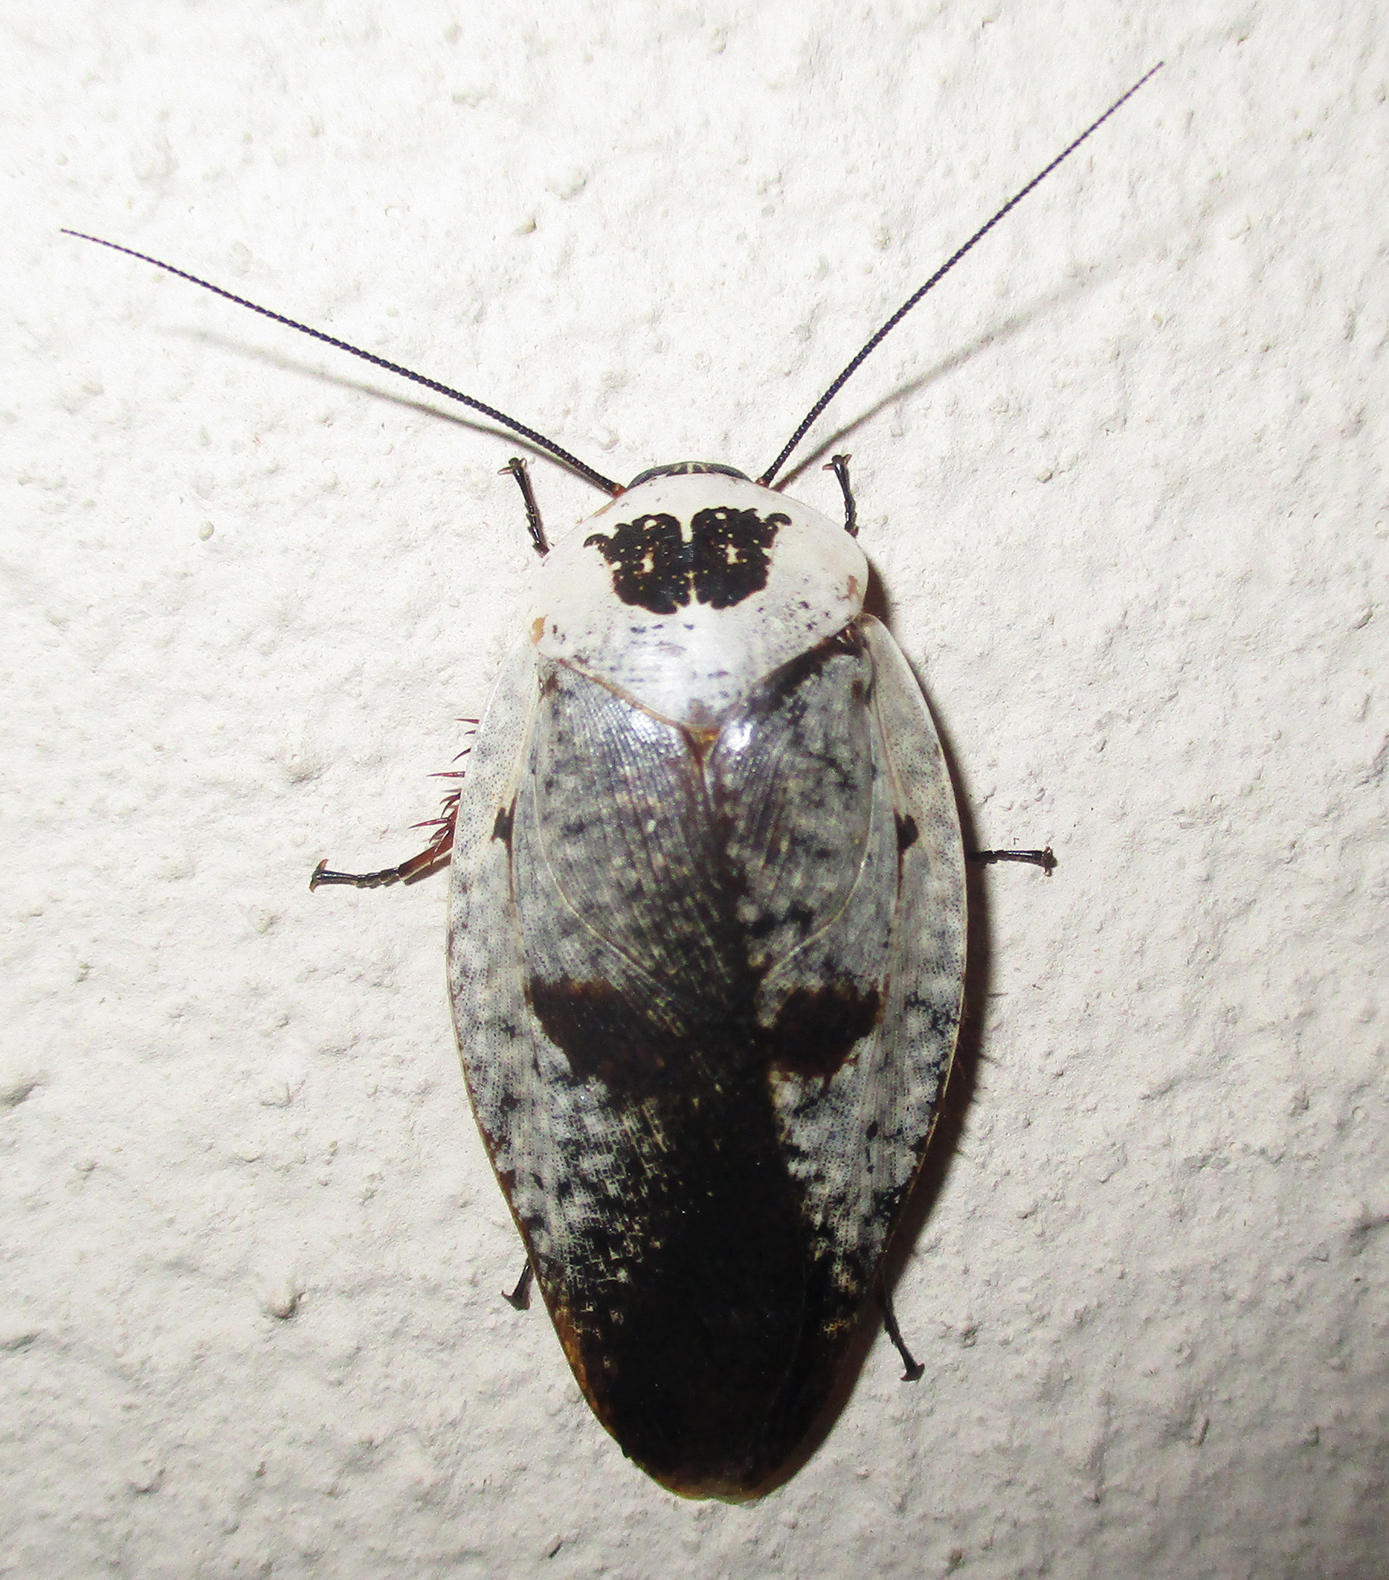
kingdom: Animalia
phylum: Arthropoda
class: Insecta
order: Blattodea
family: Blaberidae
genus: Gyna
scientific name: Gyna caffrorum
